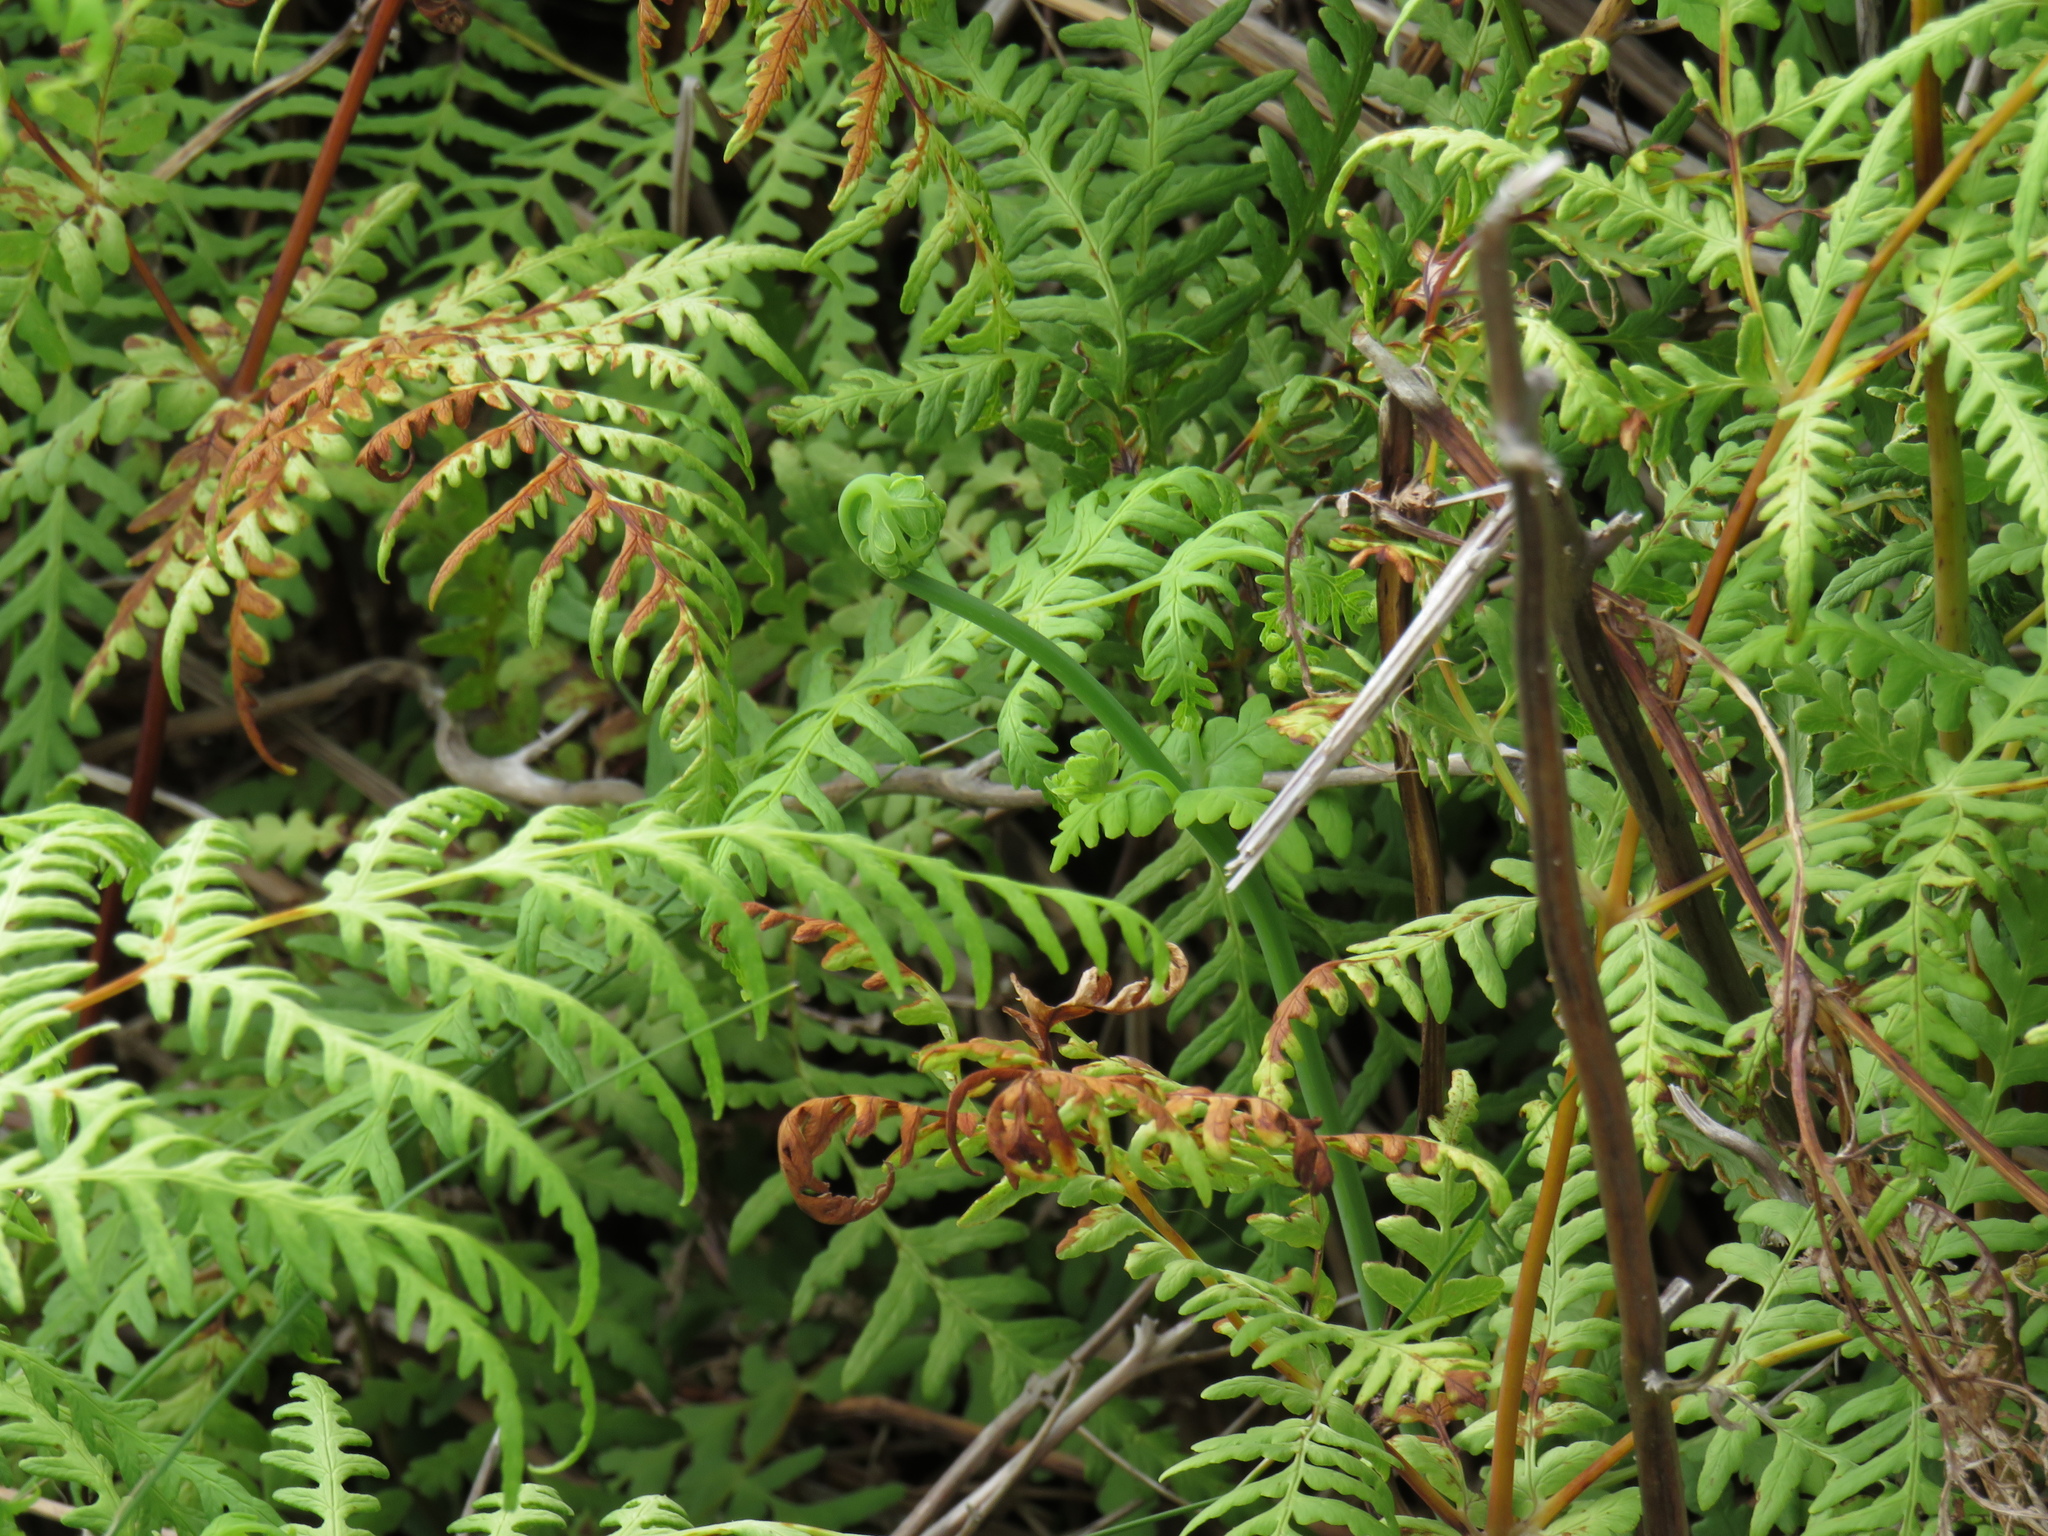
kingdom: Plantae
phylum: Tracheophyta
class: Polypodiopsida
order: Polypodiales
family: Dennstaedtiaceae
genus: Histiopteris
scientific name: Histiopteris incisa
